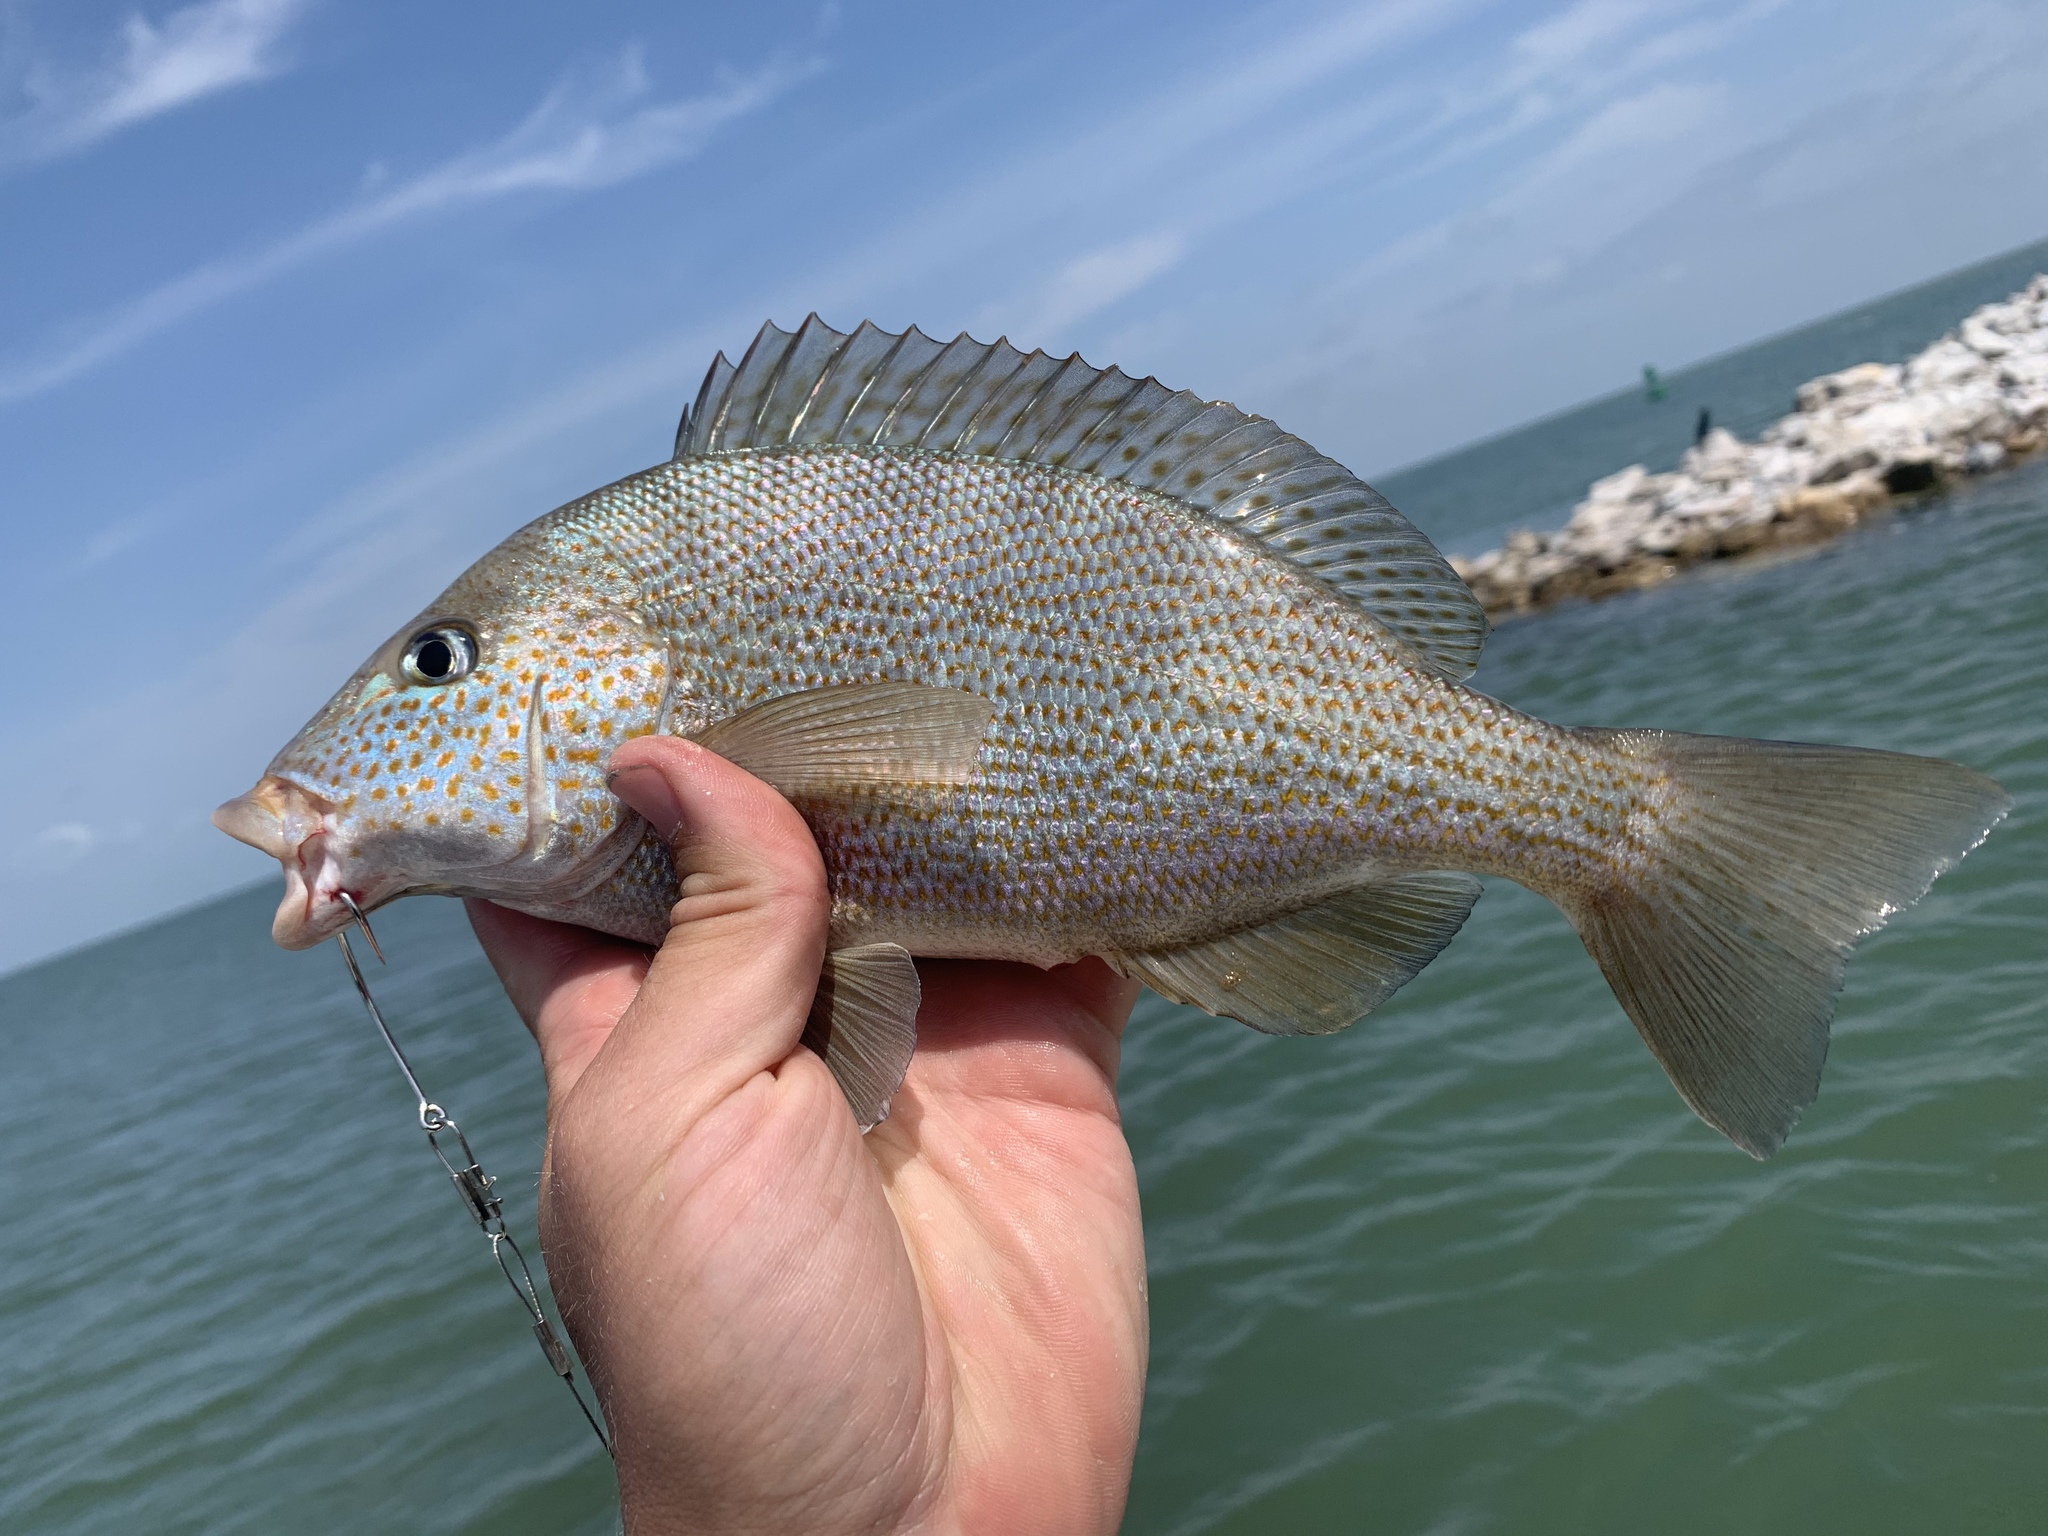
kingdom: Animalia
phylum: Chordata
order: Perciformes
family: Haemulidae
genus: Orthopristis
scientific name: Orthopristis chrysoptera
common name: Pigfish
